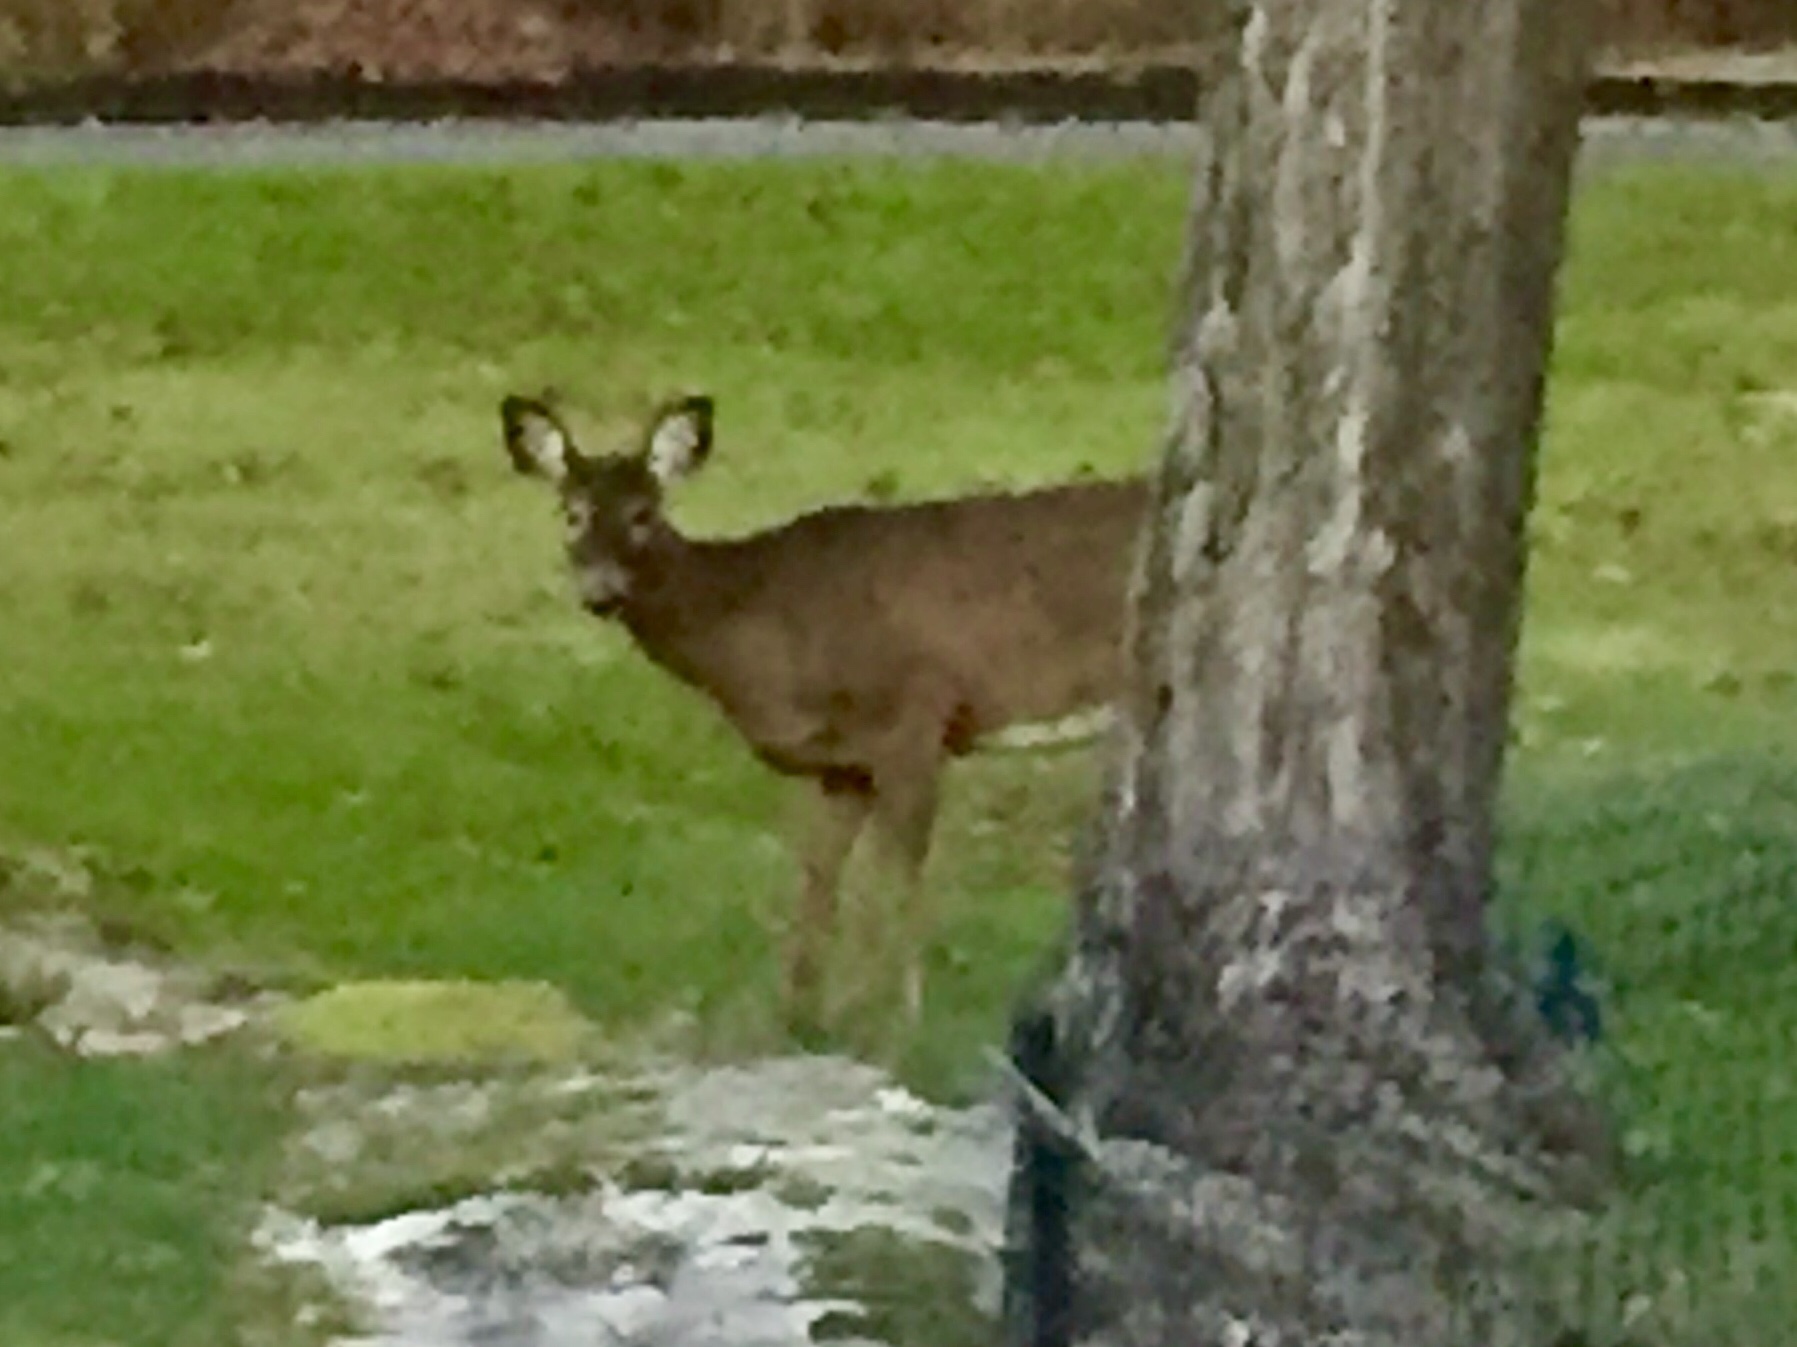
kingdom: Animalia
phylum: Chordata
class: Mammalia
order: Artiodactyla
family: Cervidae
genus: Odocoileus
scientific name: Odocoileus virginianus
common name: White-tailed deer
